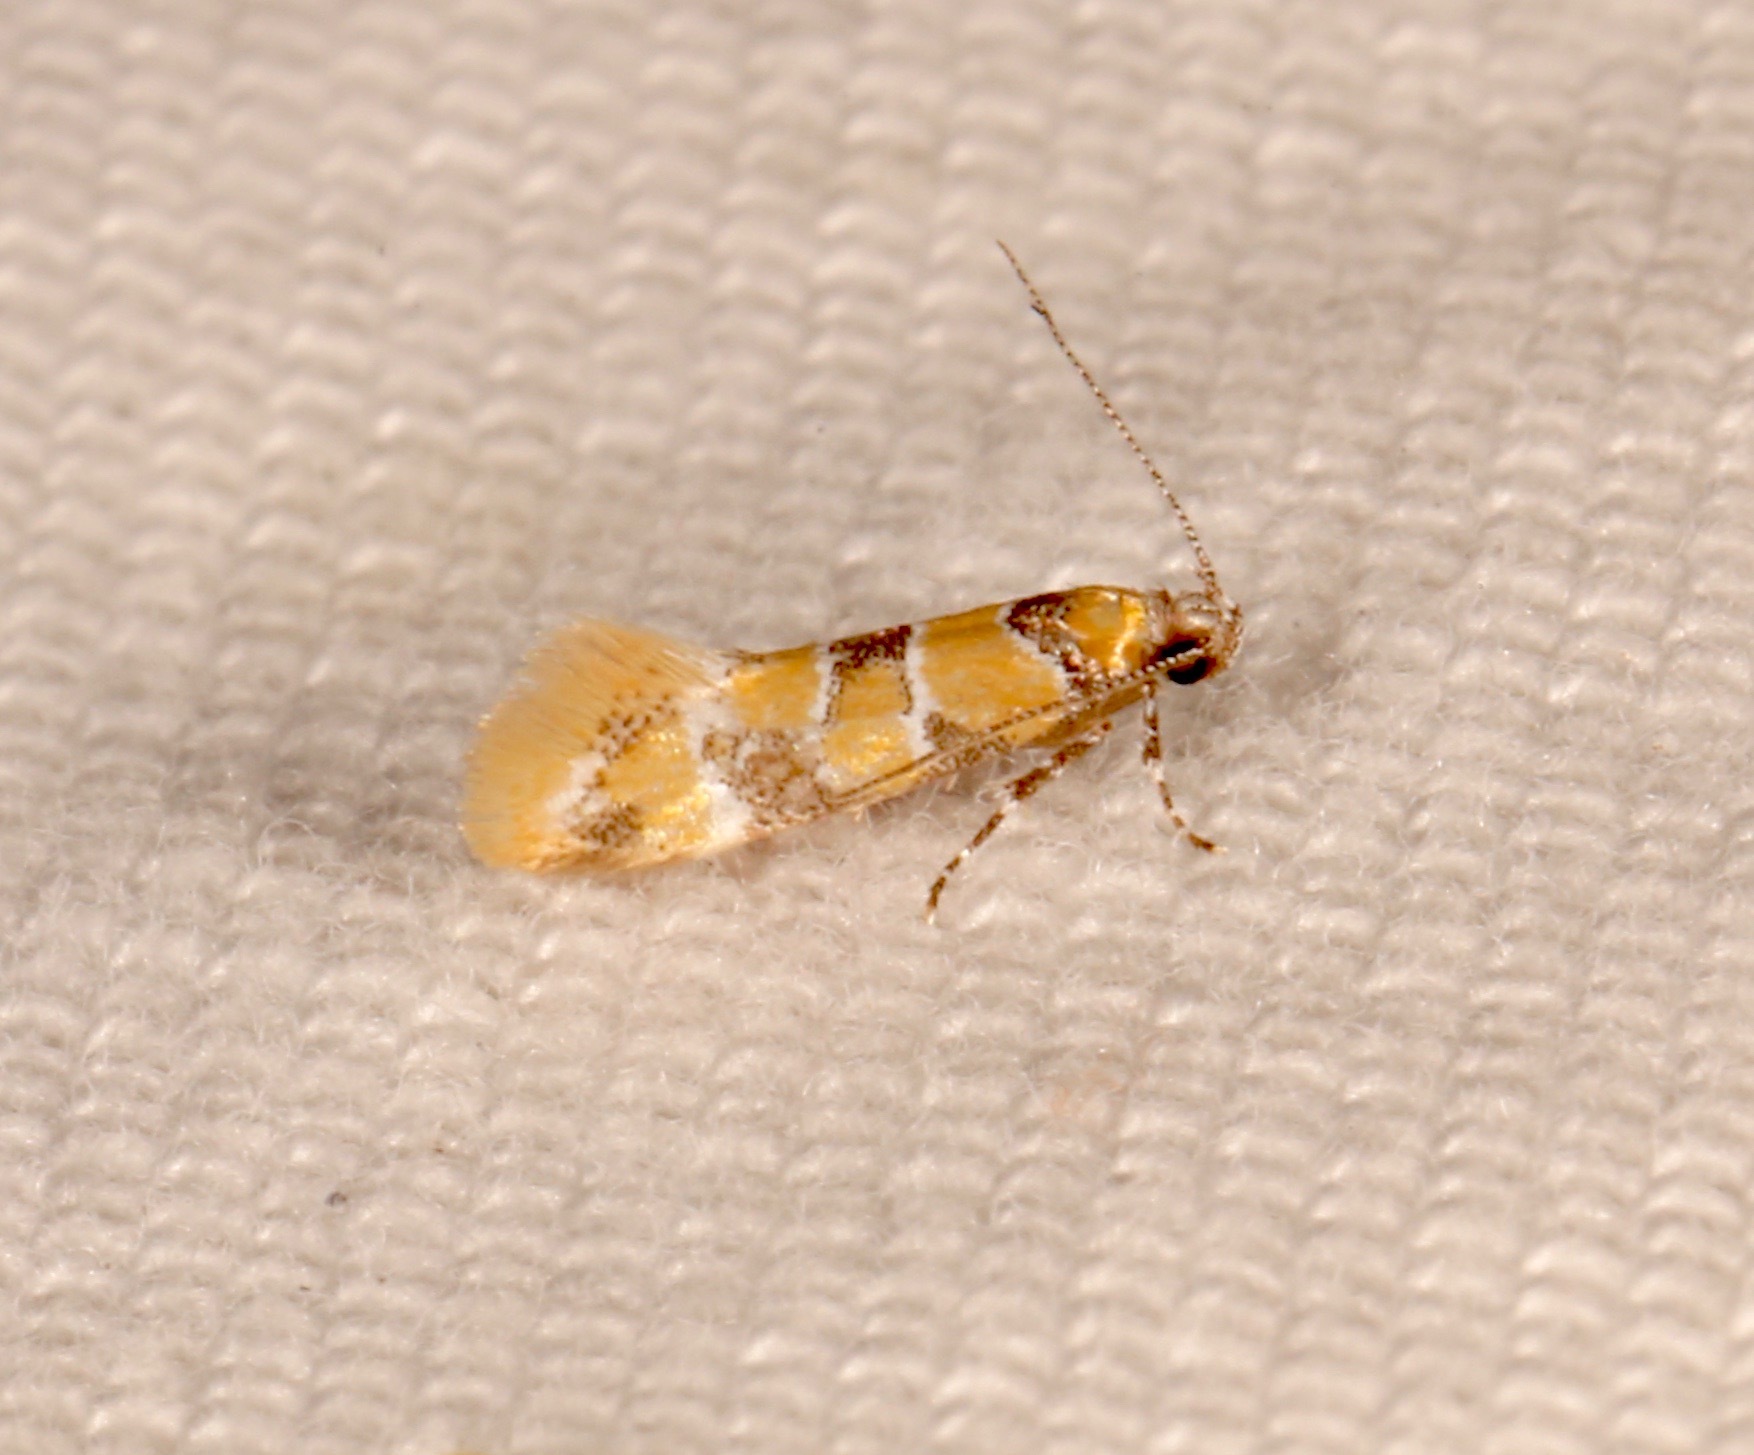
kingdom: Animalia
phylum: Arthropoda
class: Insecta
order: Lepidoptera
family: Oecophoridae
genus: Decantha
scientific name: Decantha borkhausenii
